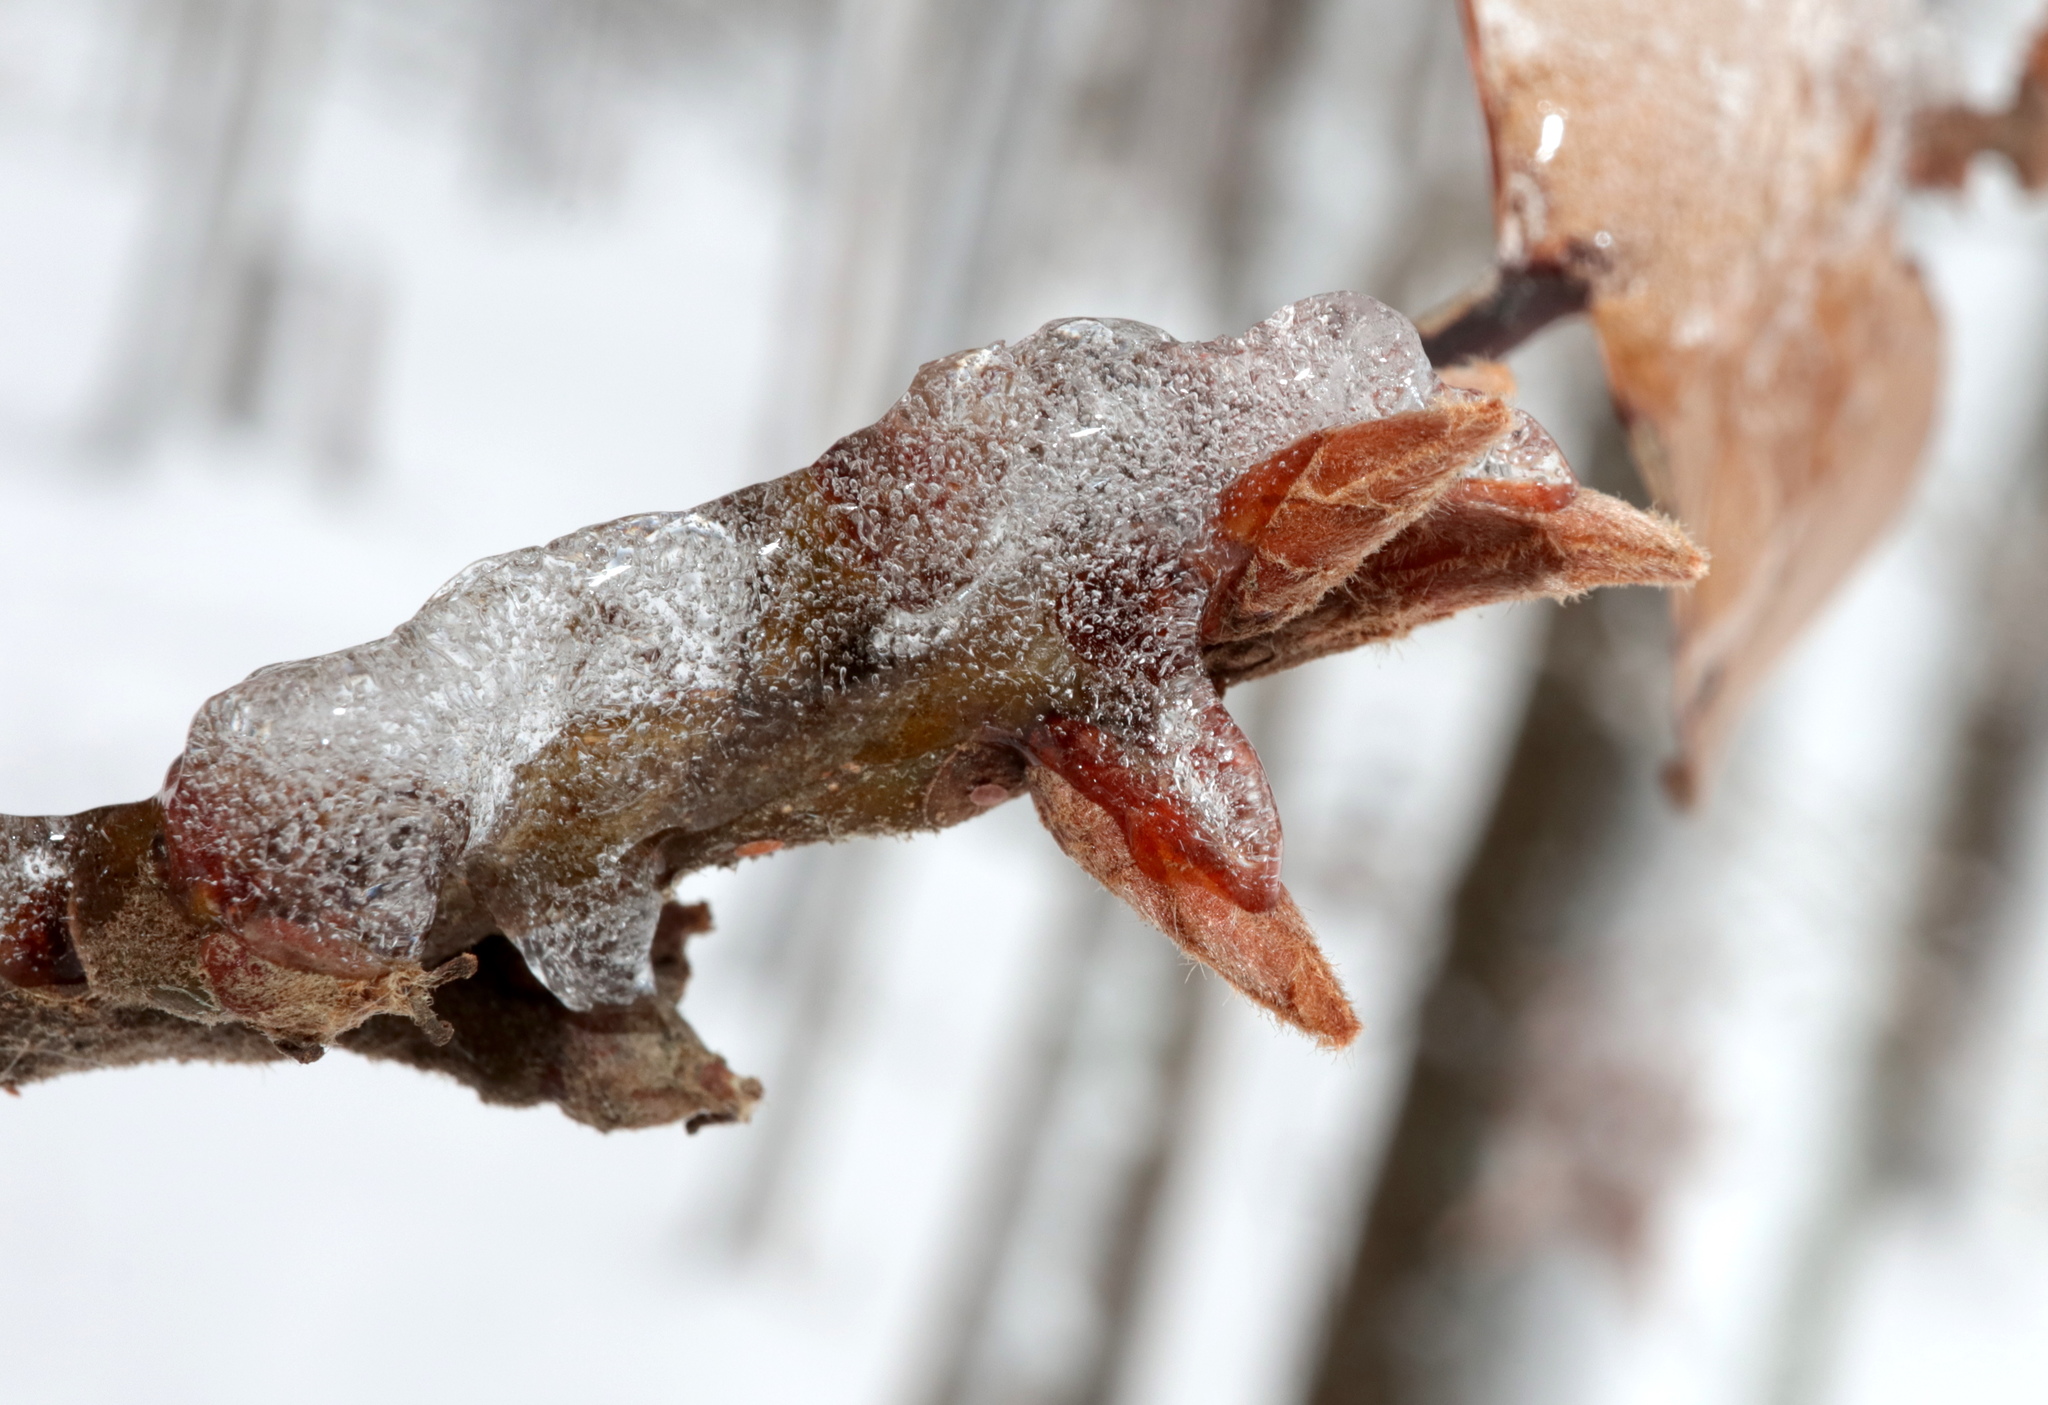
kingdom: Plantae
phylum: Tracheophyta
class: Magnoliopsida
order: Fagales
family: Fagaceae
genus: Quercus
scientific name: Quercus marilandica
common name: Blackjack oak
